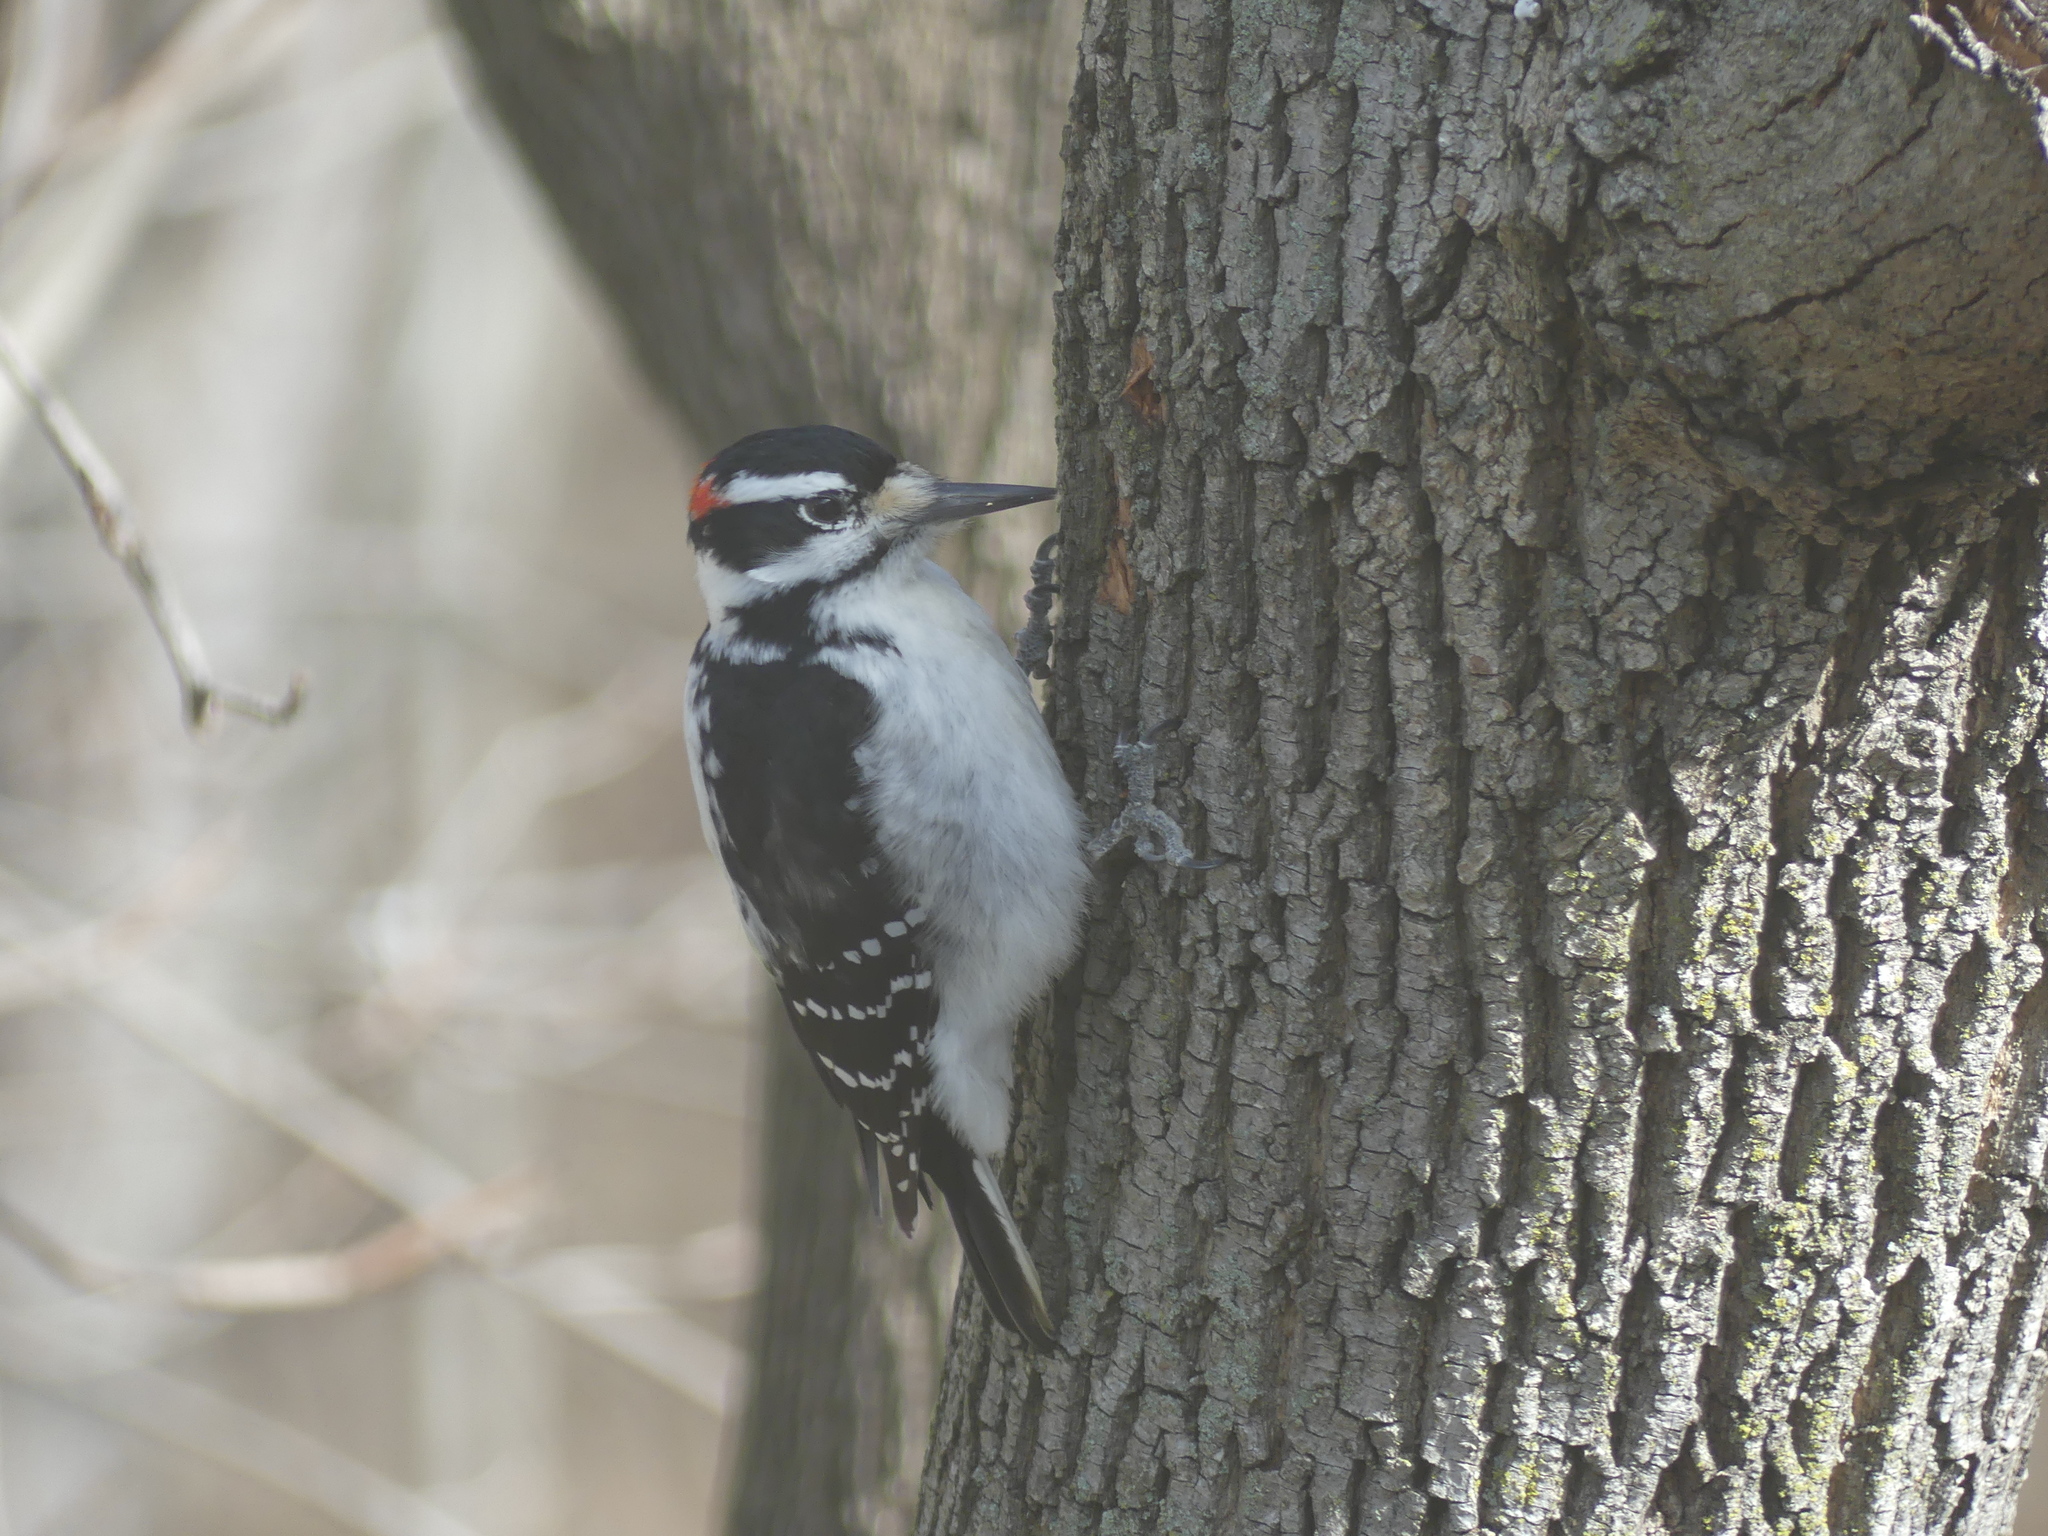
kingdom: Animalia
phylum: Chordata
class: Aves
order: Piciformes
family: Picidae
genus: Leuconotopicus
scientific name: Leuconotopicus villosus
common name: Hairy woodpecker
